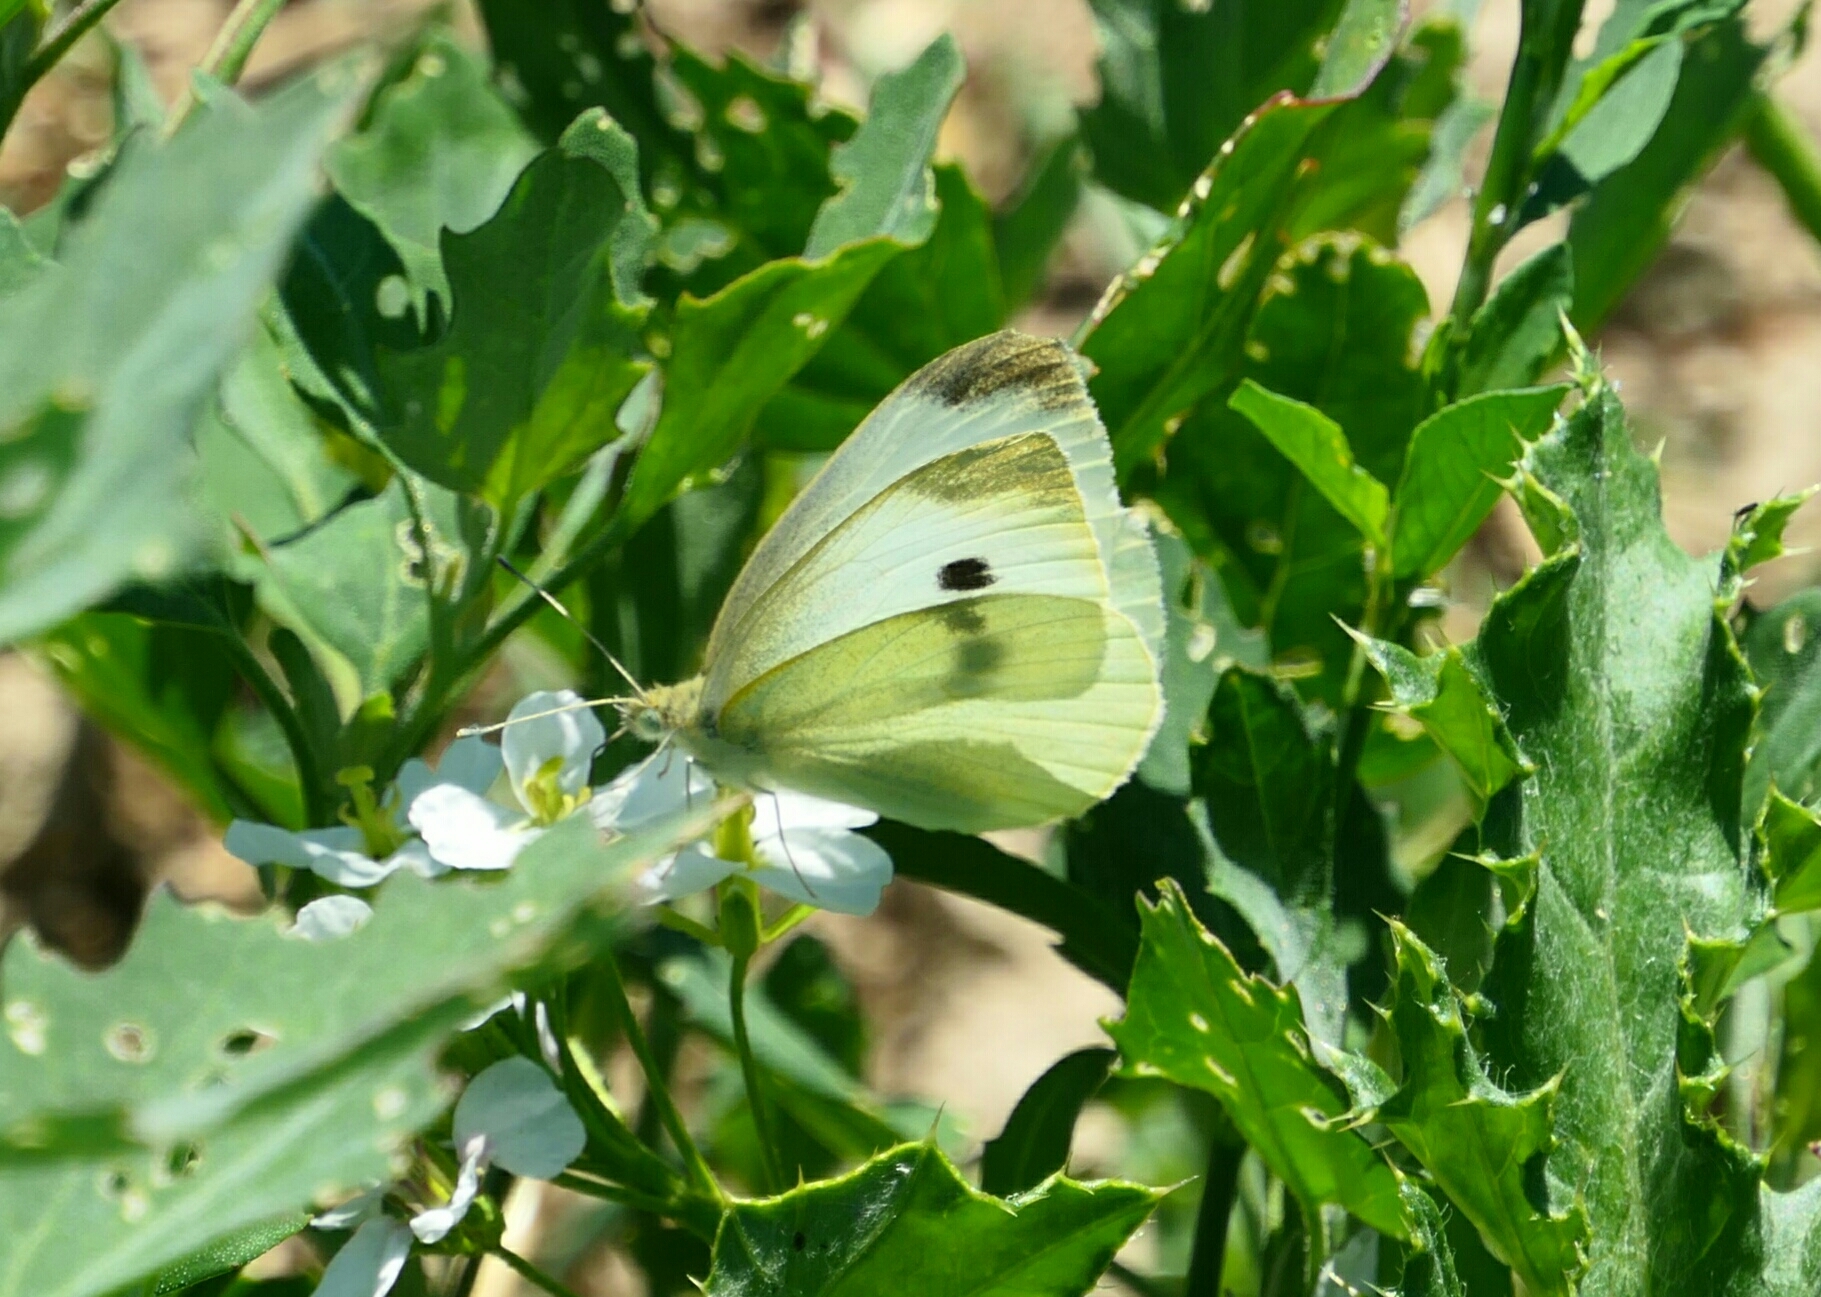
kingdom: Animalia
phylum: Arthropoda
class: Insecta
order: Lepidoptera
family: Pieridae
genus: Pieris
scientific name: Pieris rapae
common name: Small white
